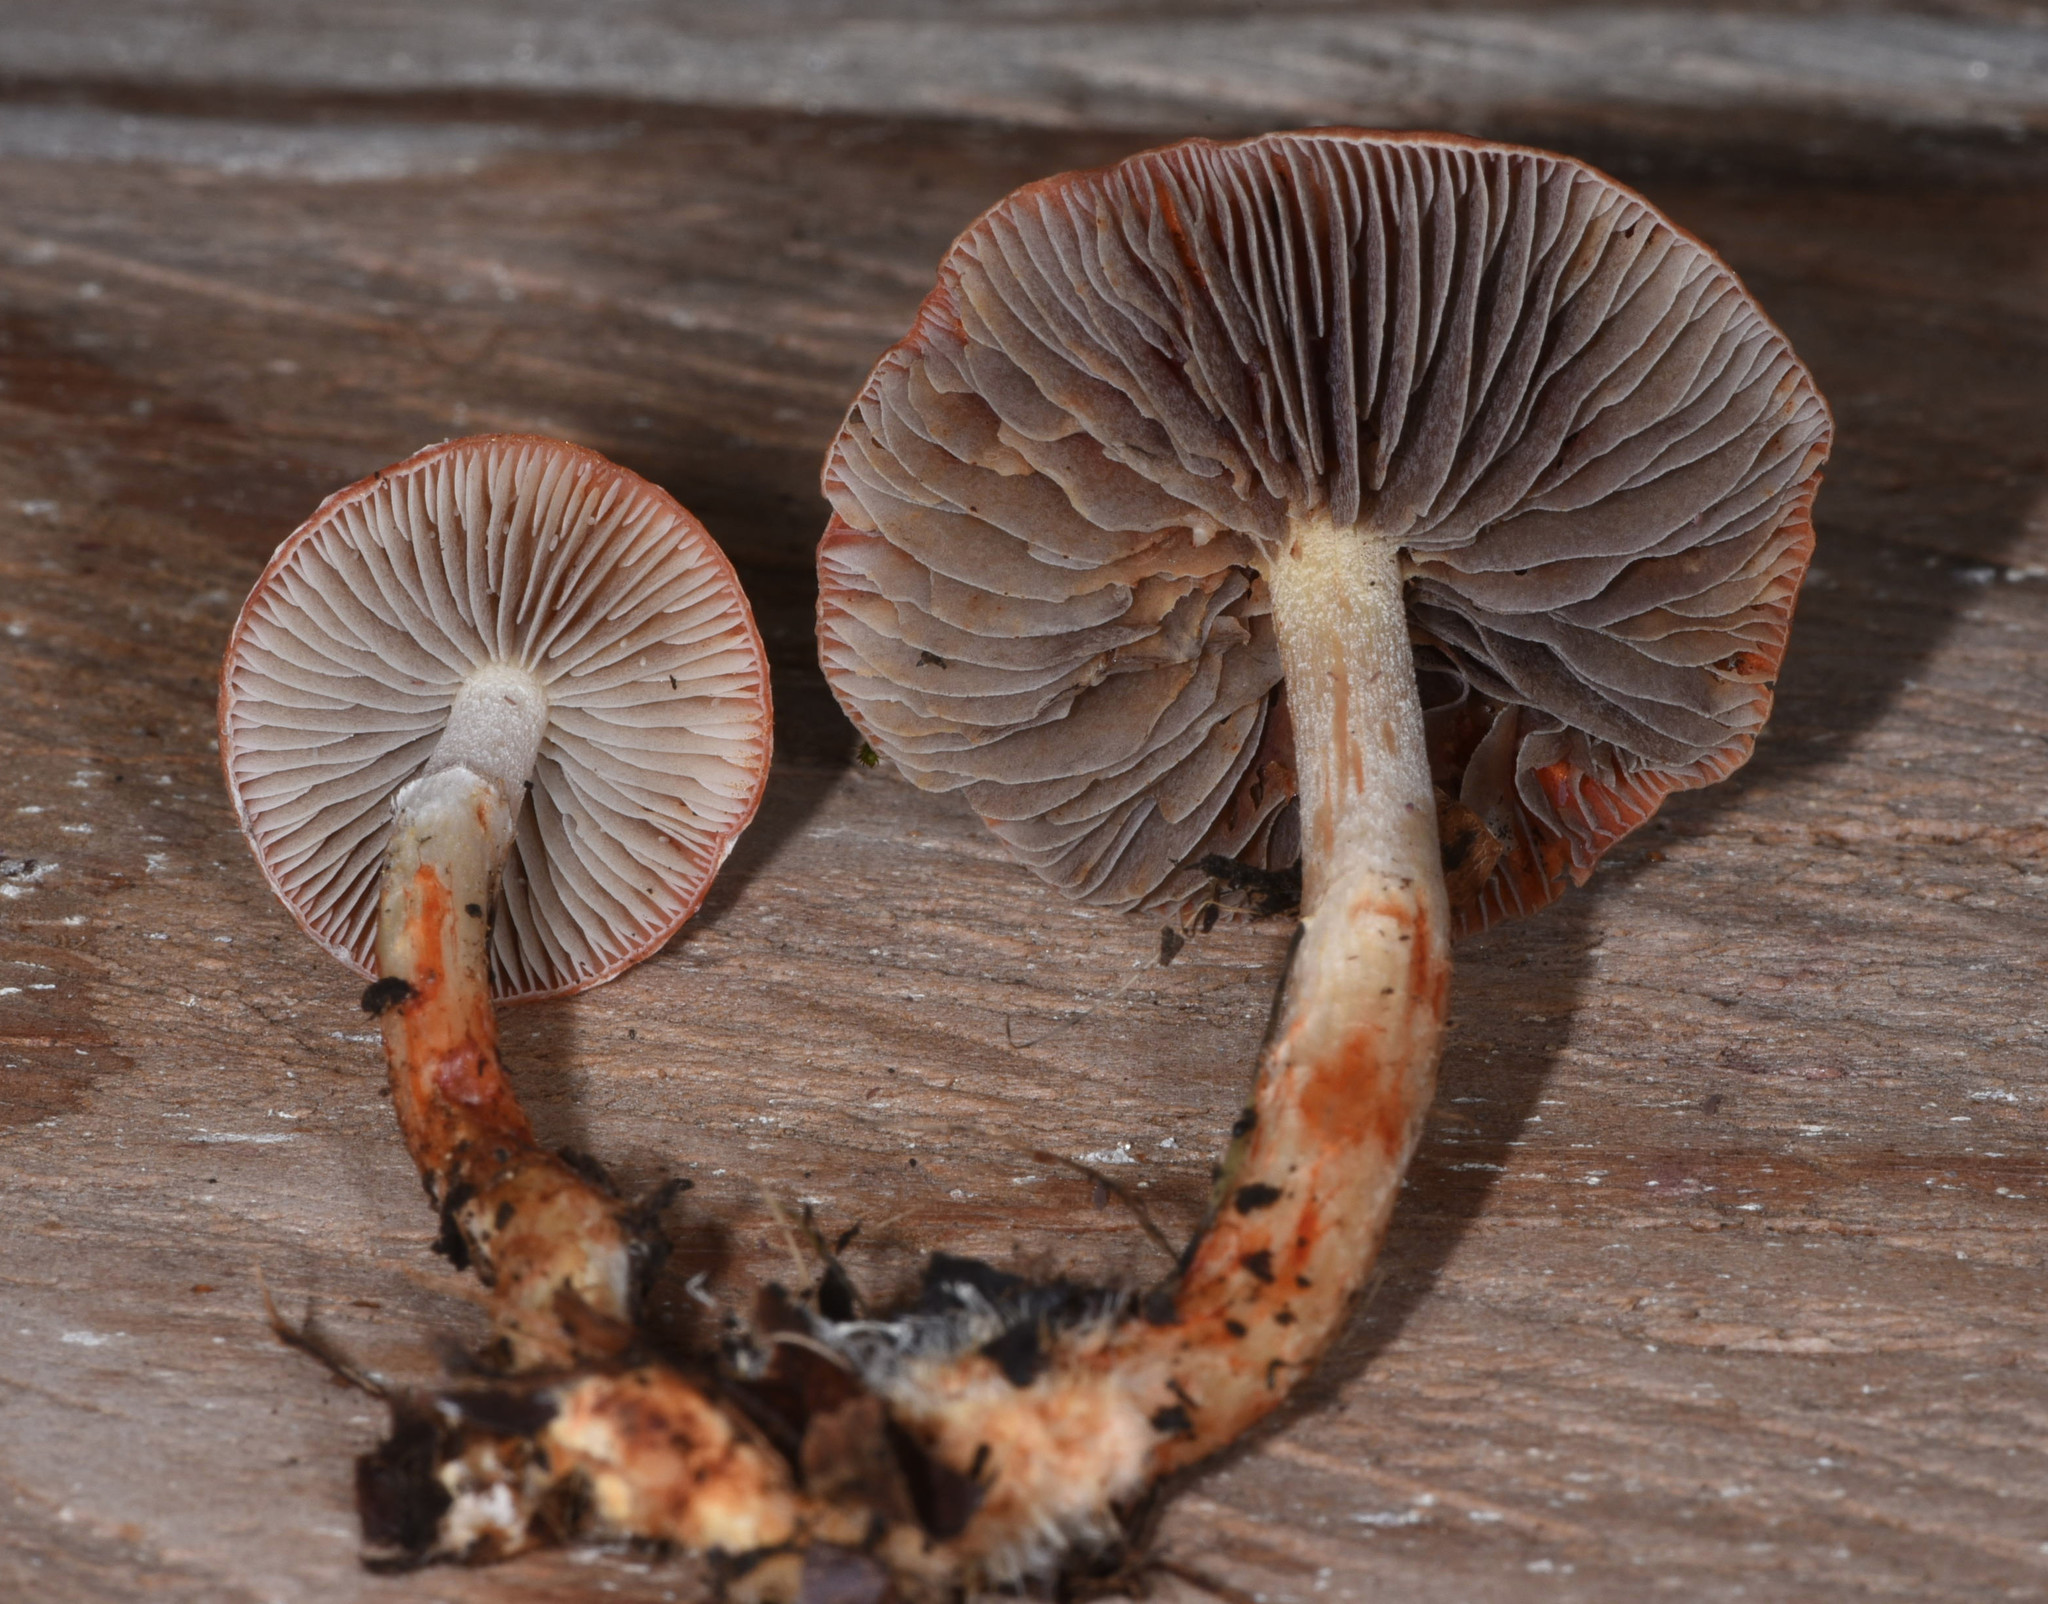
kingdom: Fungi
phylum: Basidiomycota
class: Agaricomycetes
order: Agaricales
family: Strophariaceae
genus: Leratiomyces
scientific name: Leratiomyces ceres
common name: Redlead roundhead
